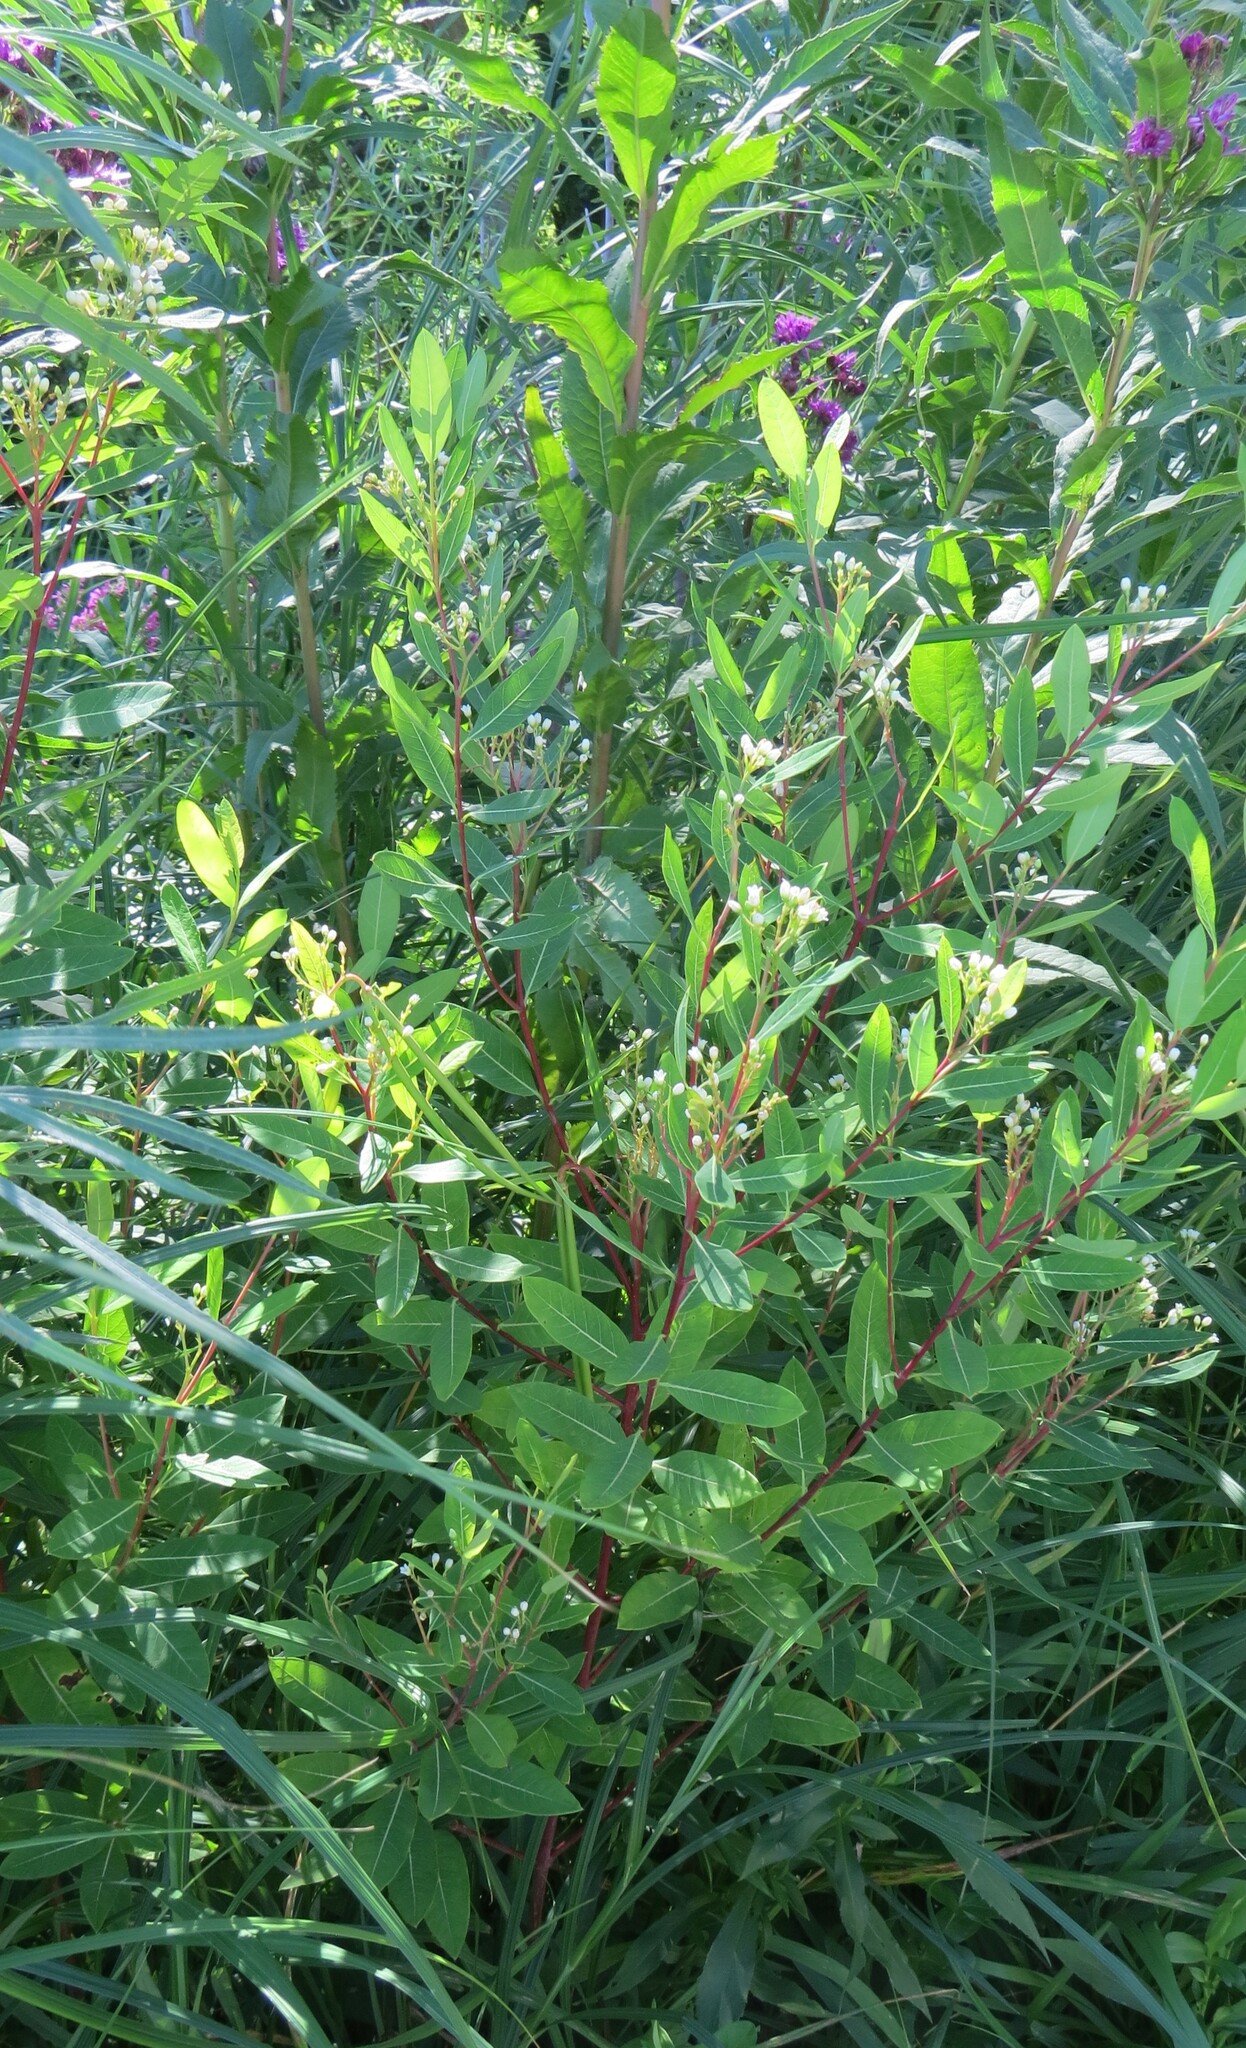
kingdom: Plantae
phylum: Tracheophyta
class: Magnoliopsida
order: Gentianales
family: Apocynaceae
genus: Apocynum
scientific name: Apocynum cannabinum
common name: Hemp dogbane
